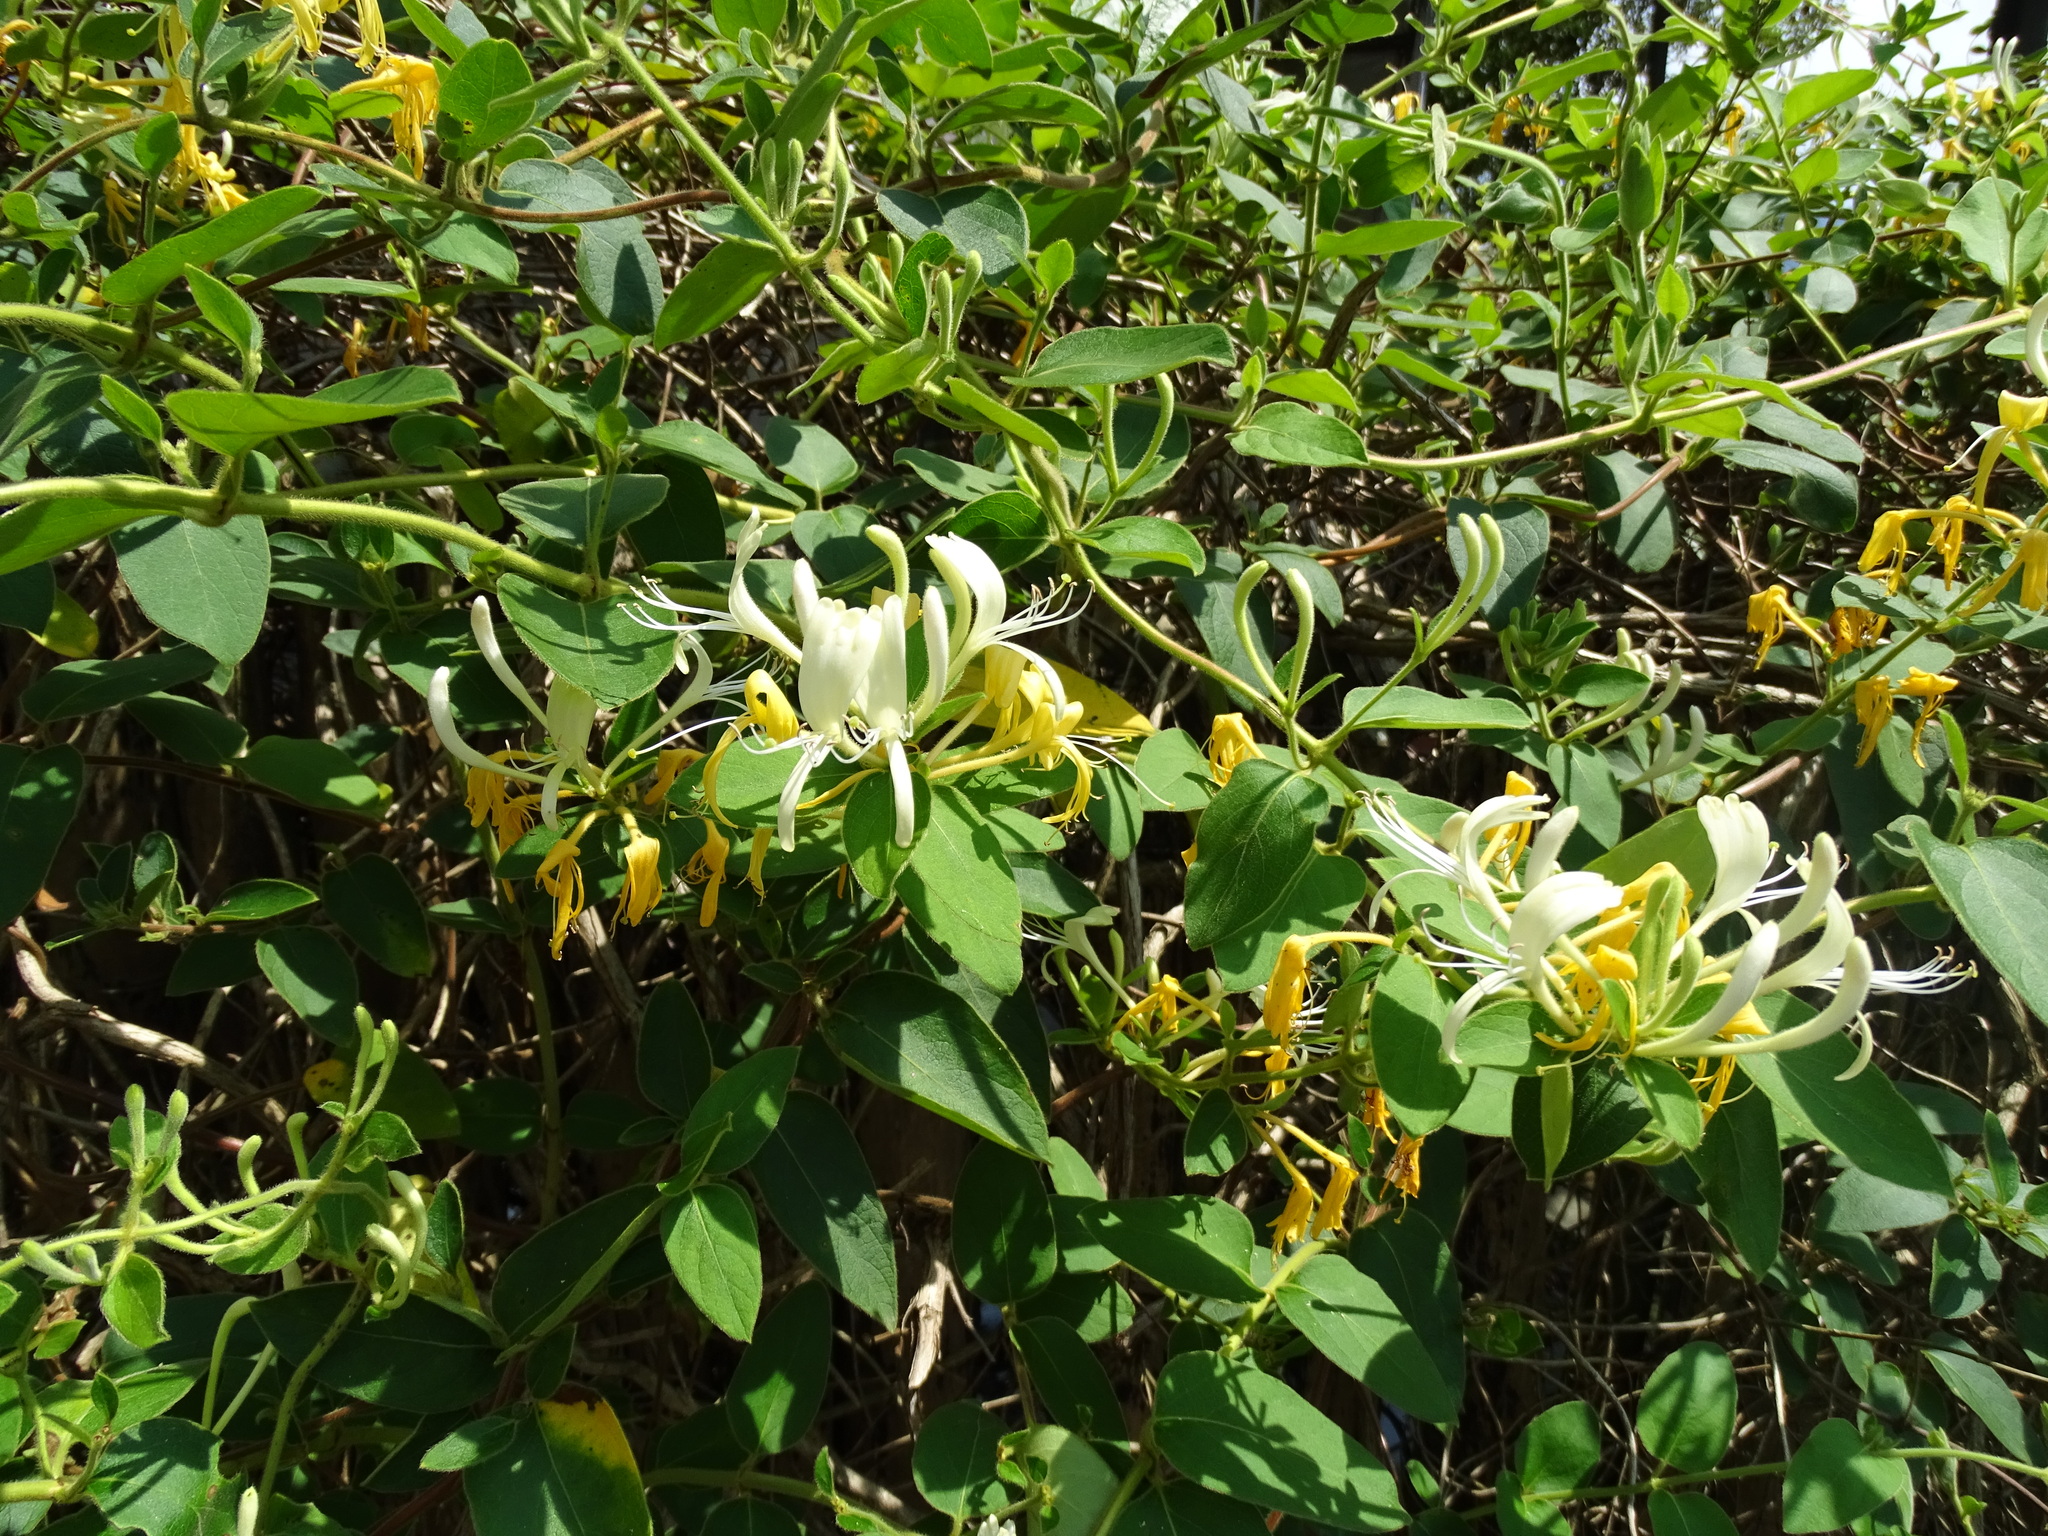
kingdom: Plantae
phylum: Tracheophyta
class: Magnoliopsida
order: Dipsacales
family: Caprifoliaceae
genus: Lonicera
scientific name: Lonicera japonica
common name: Japanese honeysuckle
